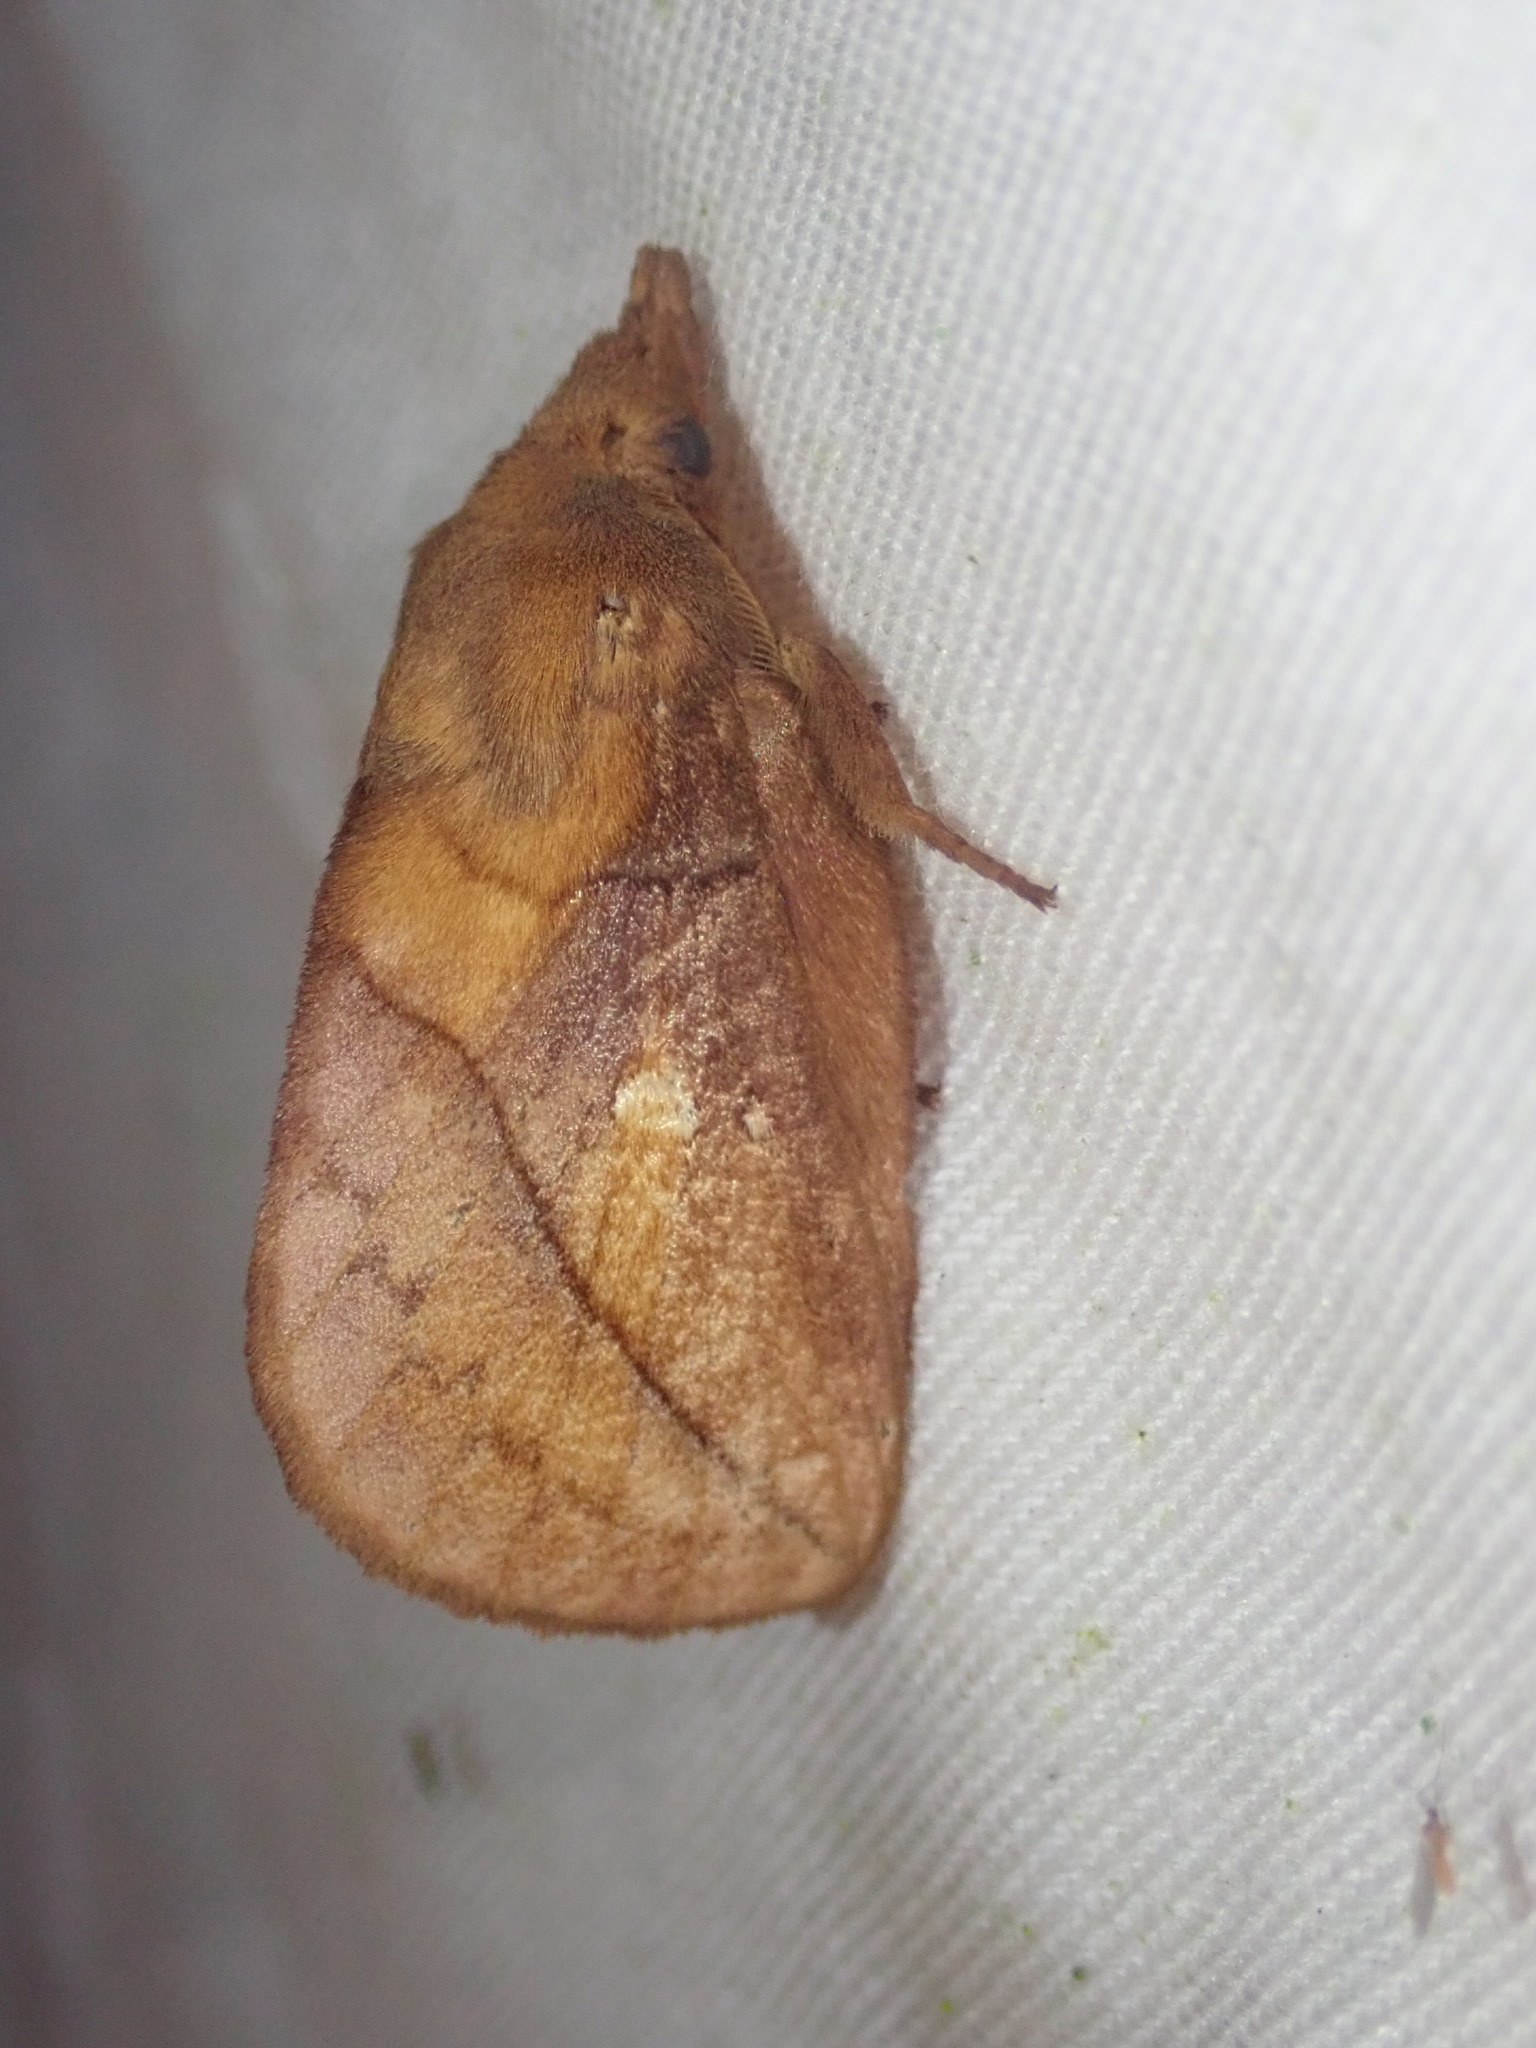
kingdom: Animalia
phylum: Arthropoda
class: Insecta
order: Lepidoptera
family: Lasiocampidae
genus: Euthrix
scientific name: Euthrix potatoria
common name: Drinker
